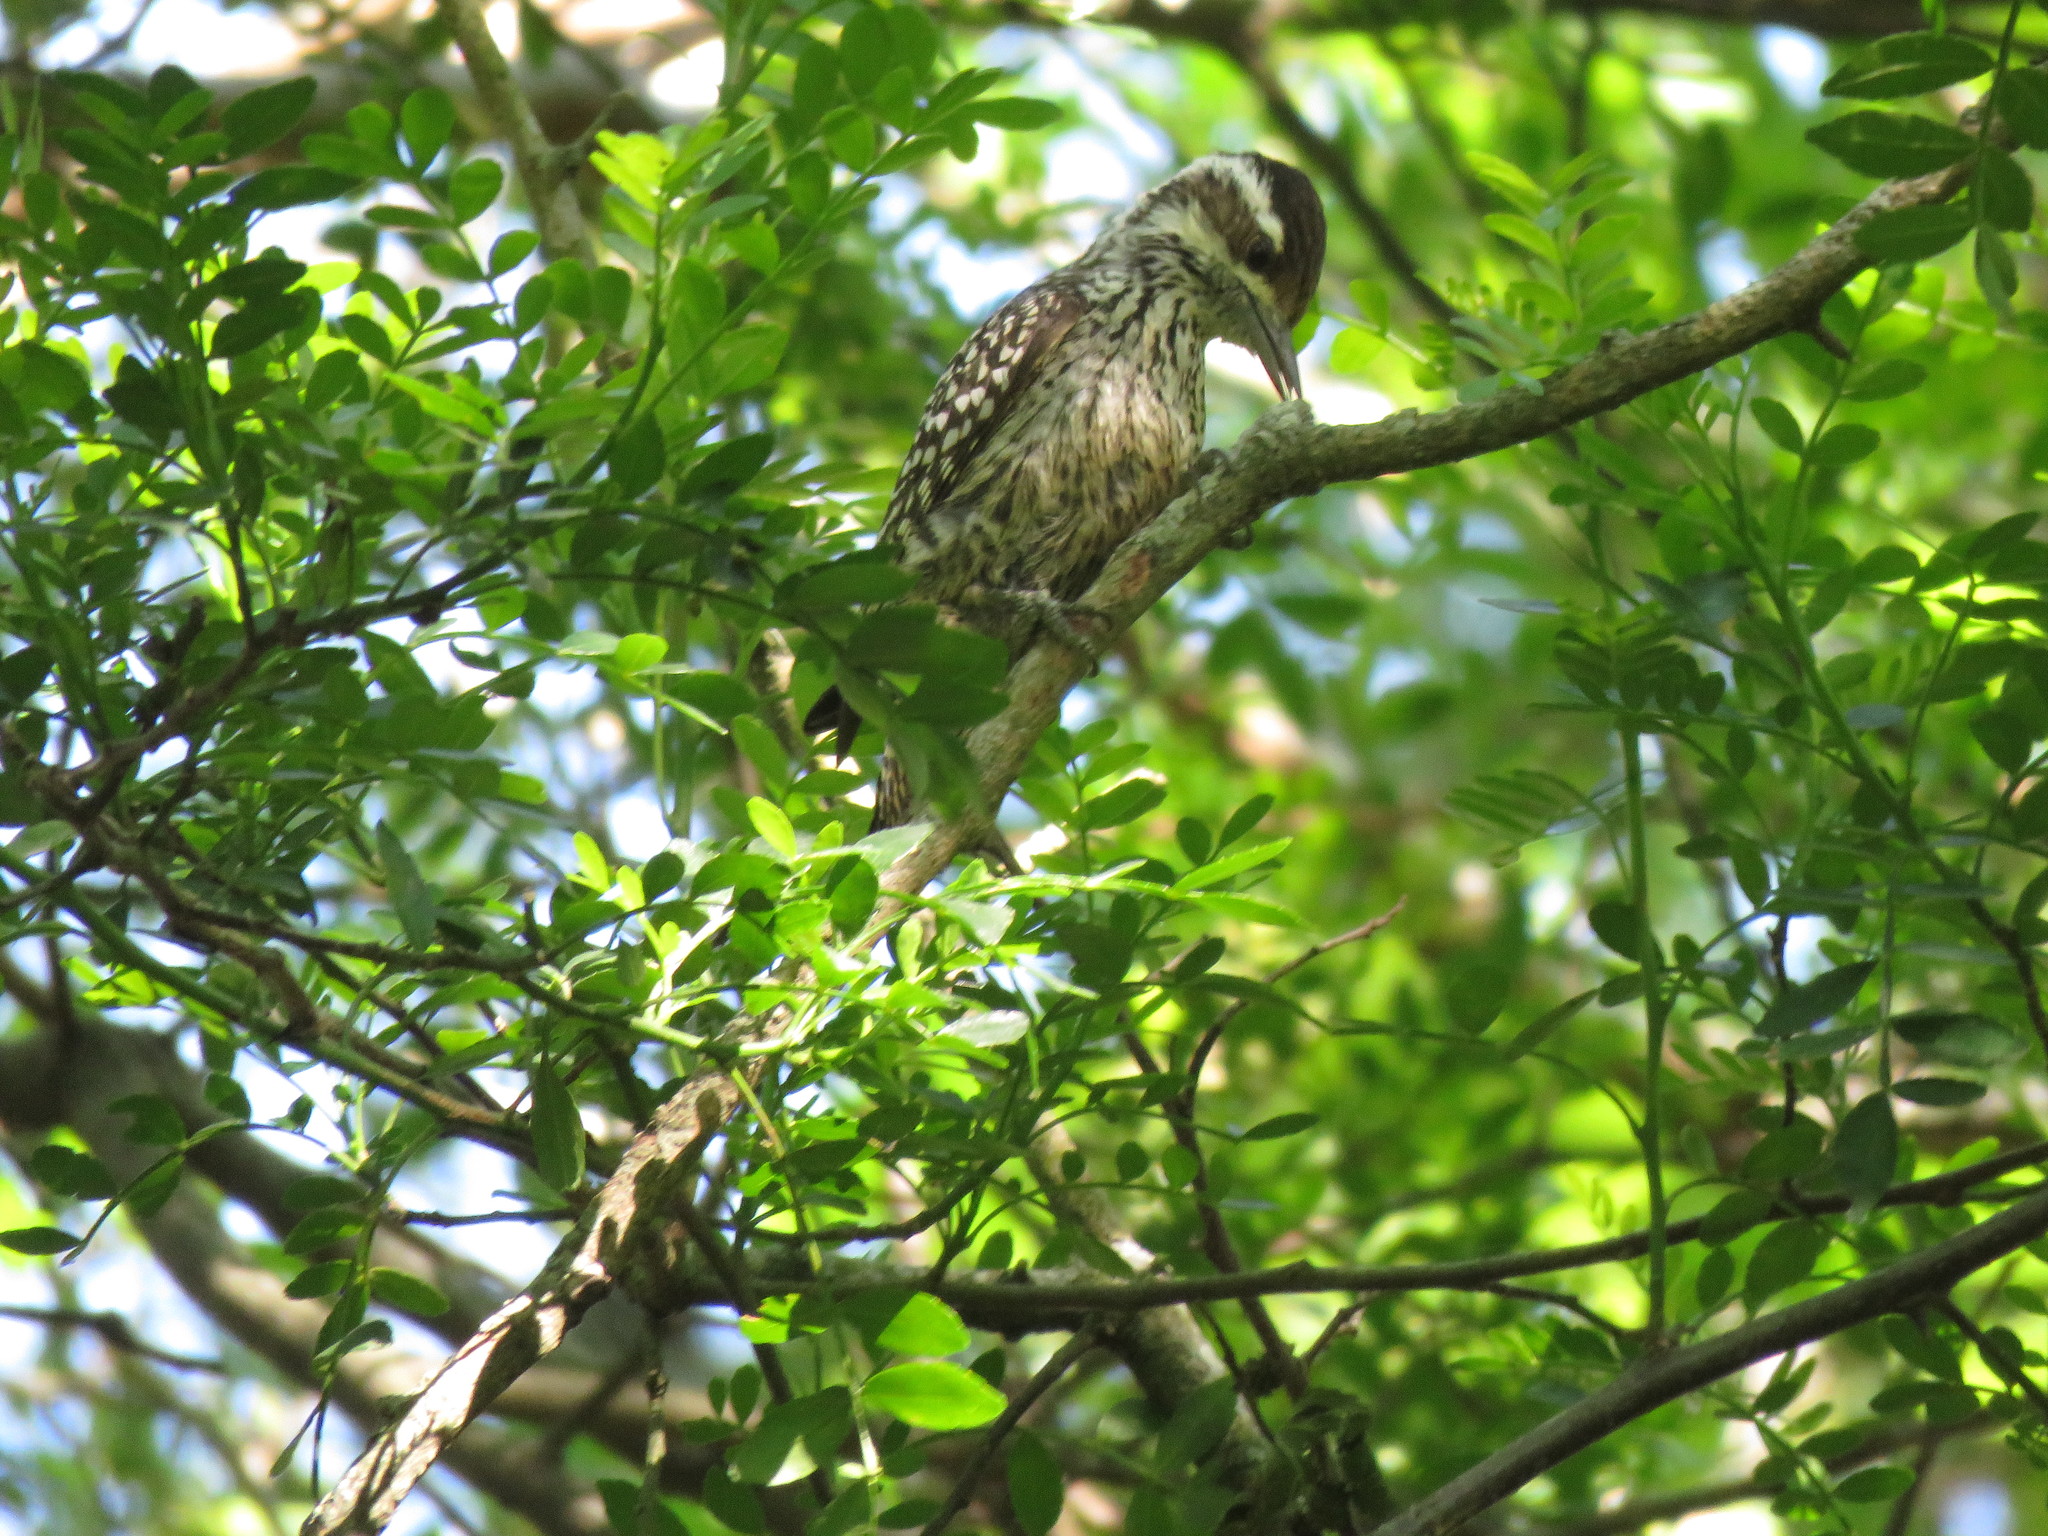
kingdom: Animalia
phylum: Chordata
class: Aves
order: Piciformes
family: Picidae
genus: Veniliornis
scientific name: Veniliornis mixtus
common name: Checkered woodpecker
